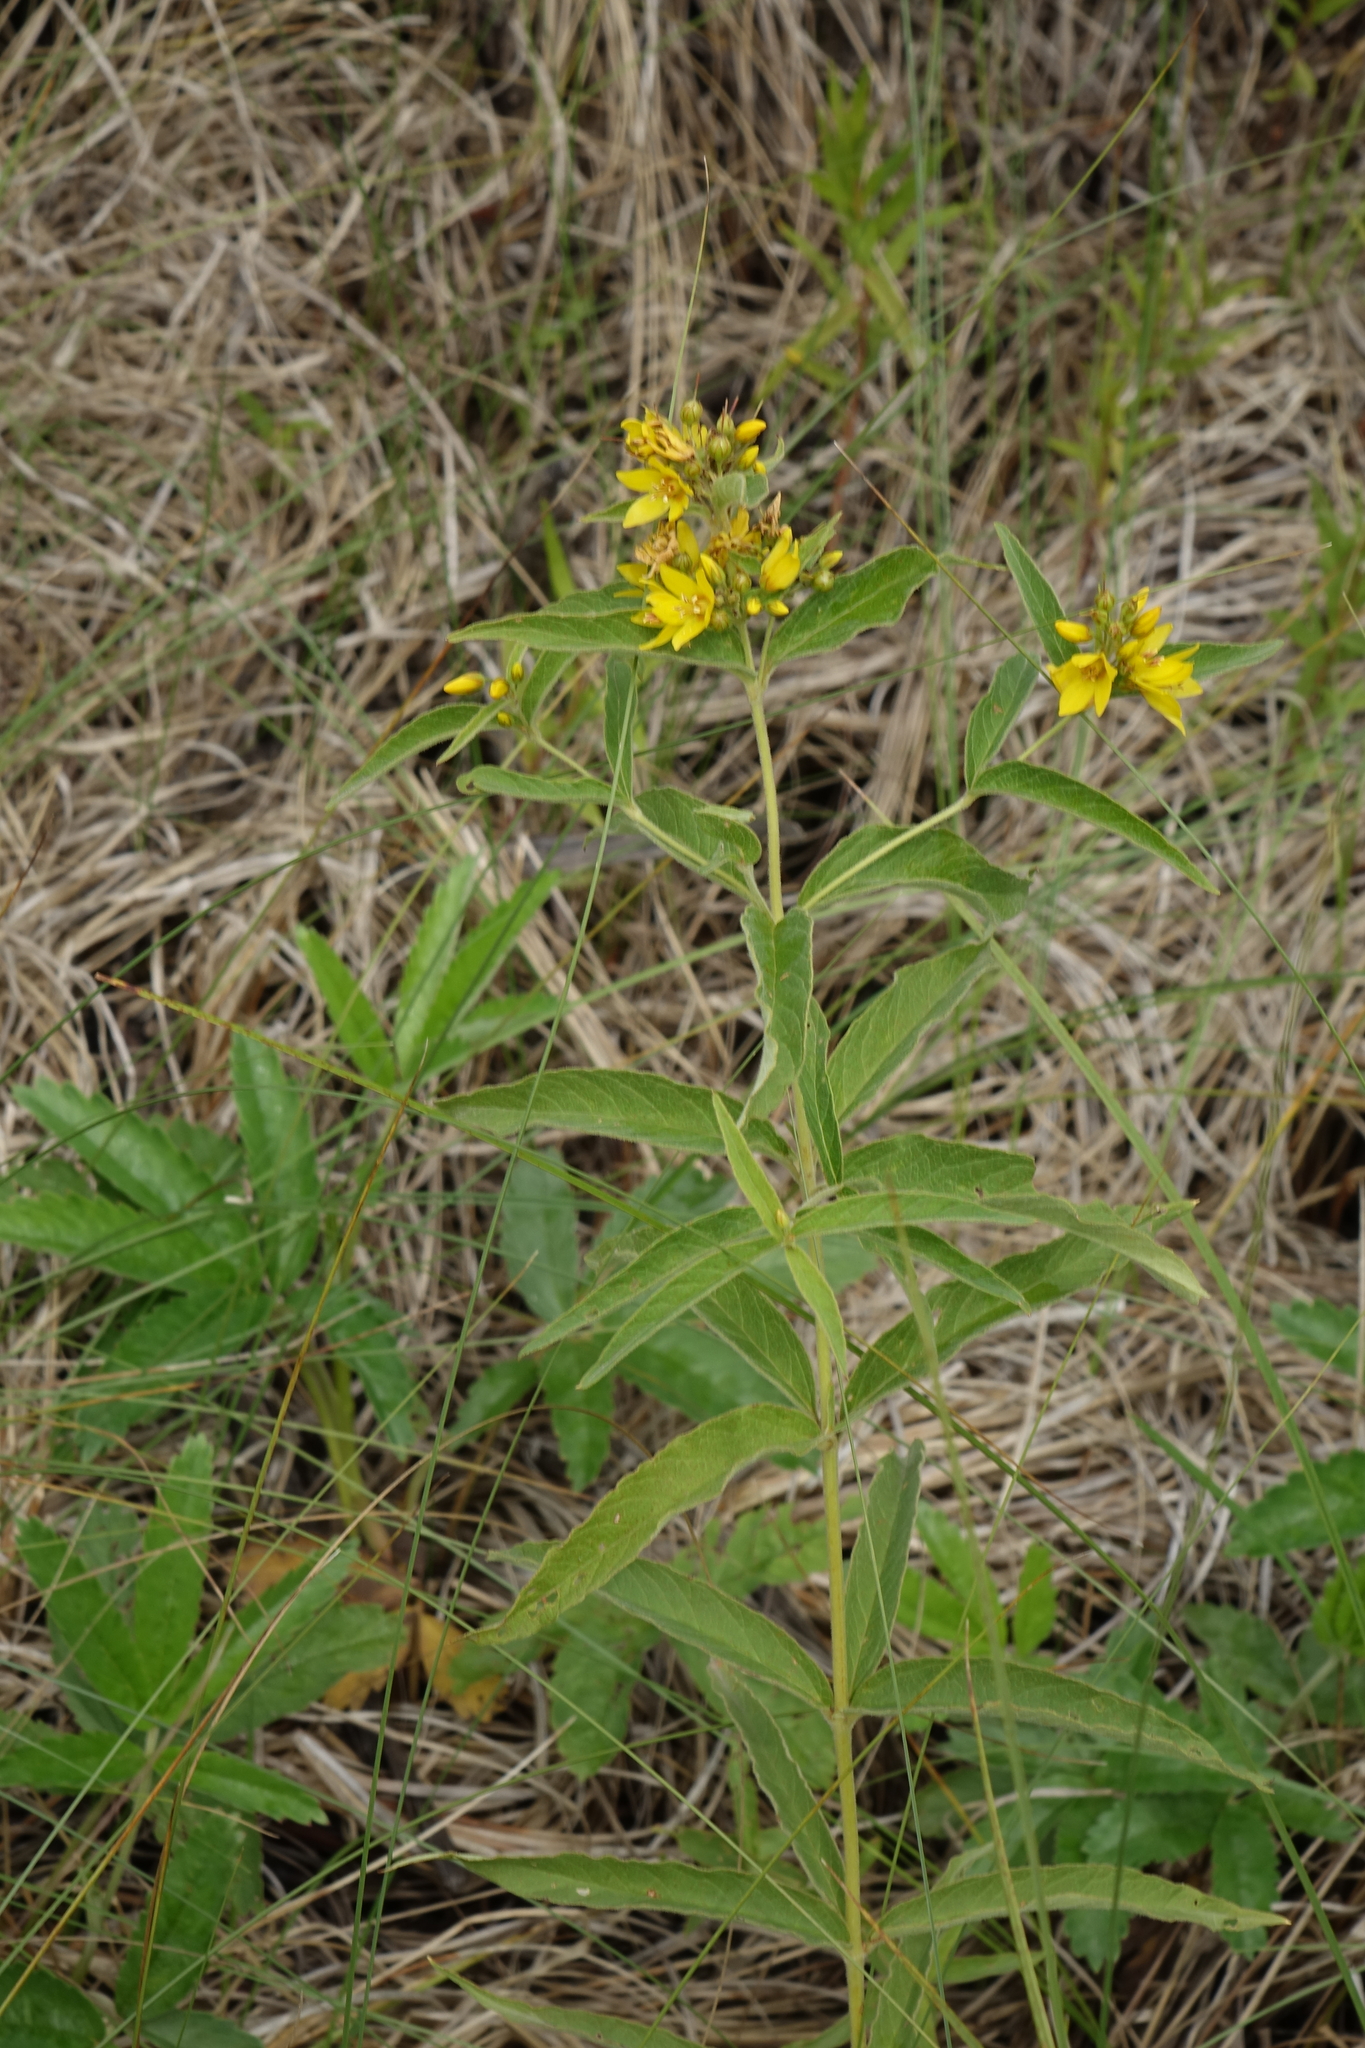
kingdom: Plantae
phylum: Tracheophyta
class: Magnoliopsida
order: Ericales
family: Primulaceae
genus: Lysimachia
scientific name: Lysimachia vulgaris
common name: Yellow loosestrife
